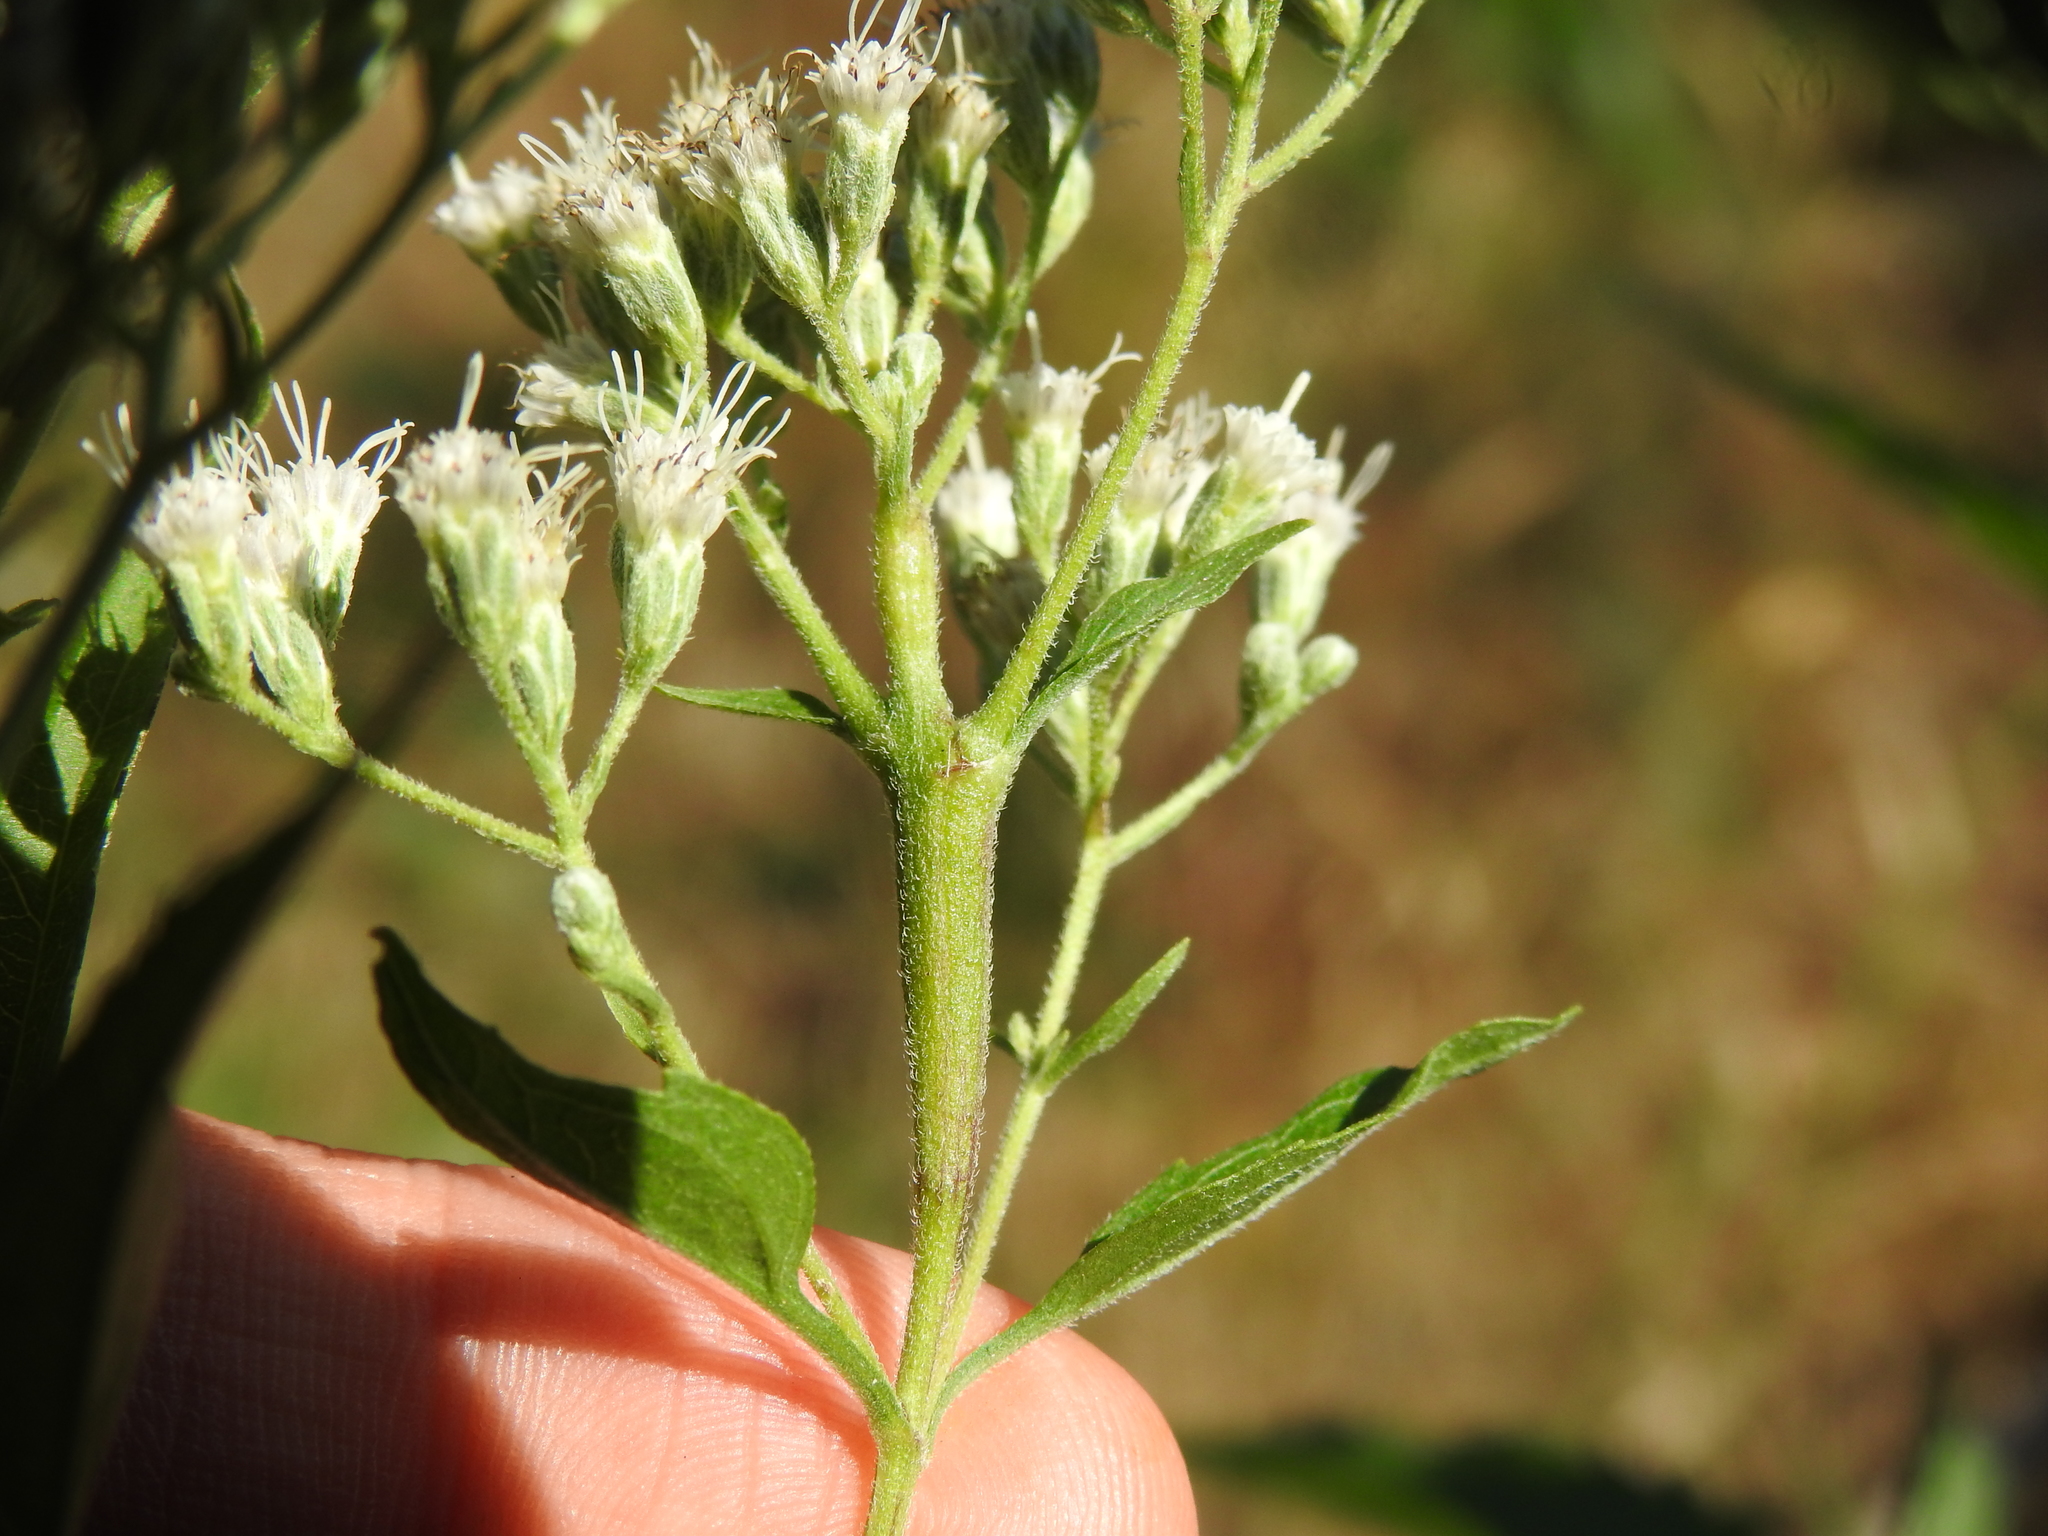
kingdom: Animalia
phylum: Arthropoda
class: Insecta
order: Diptera
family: Cecidomyiidae
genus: Neolasioptera
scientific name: Neolasioptera perfoliata
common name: Boneset stem midge
